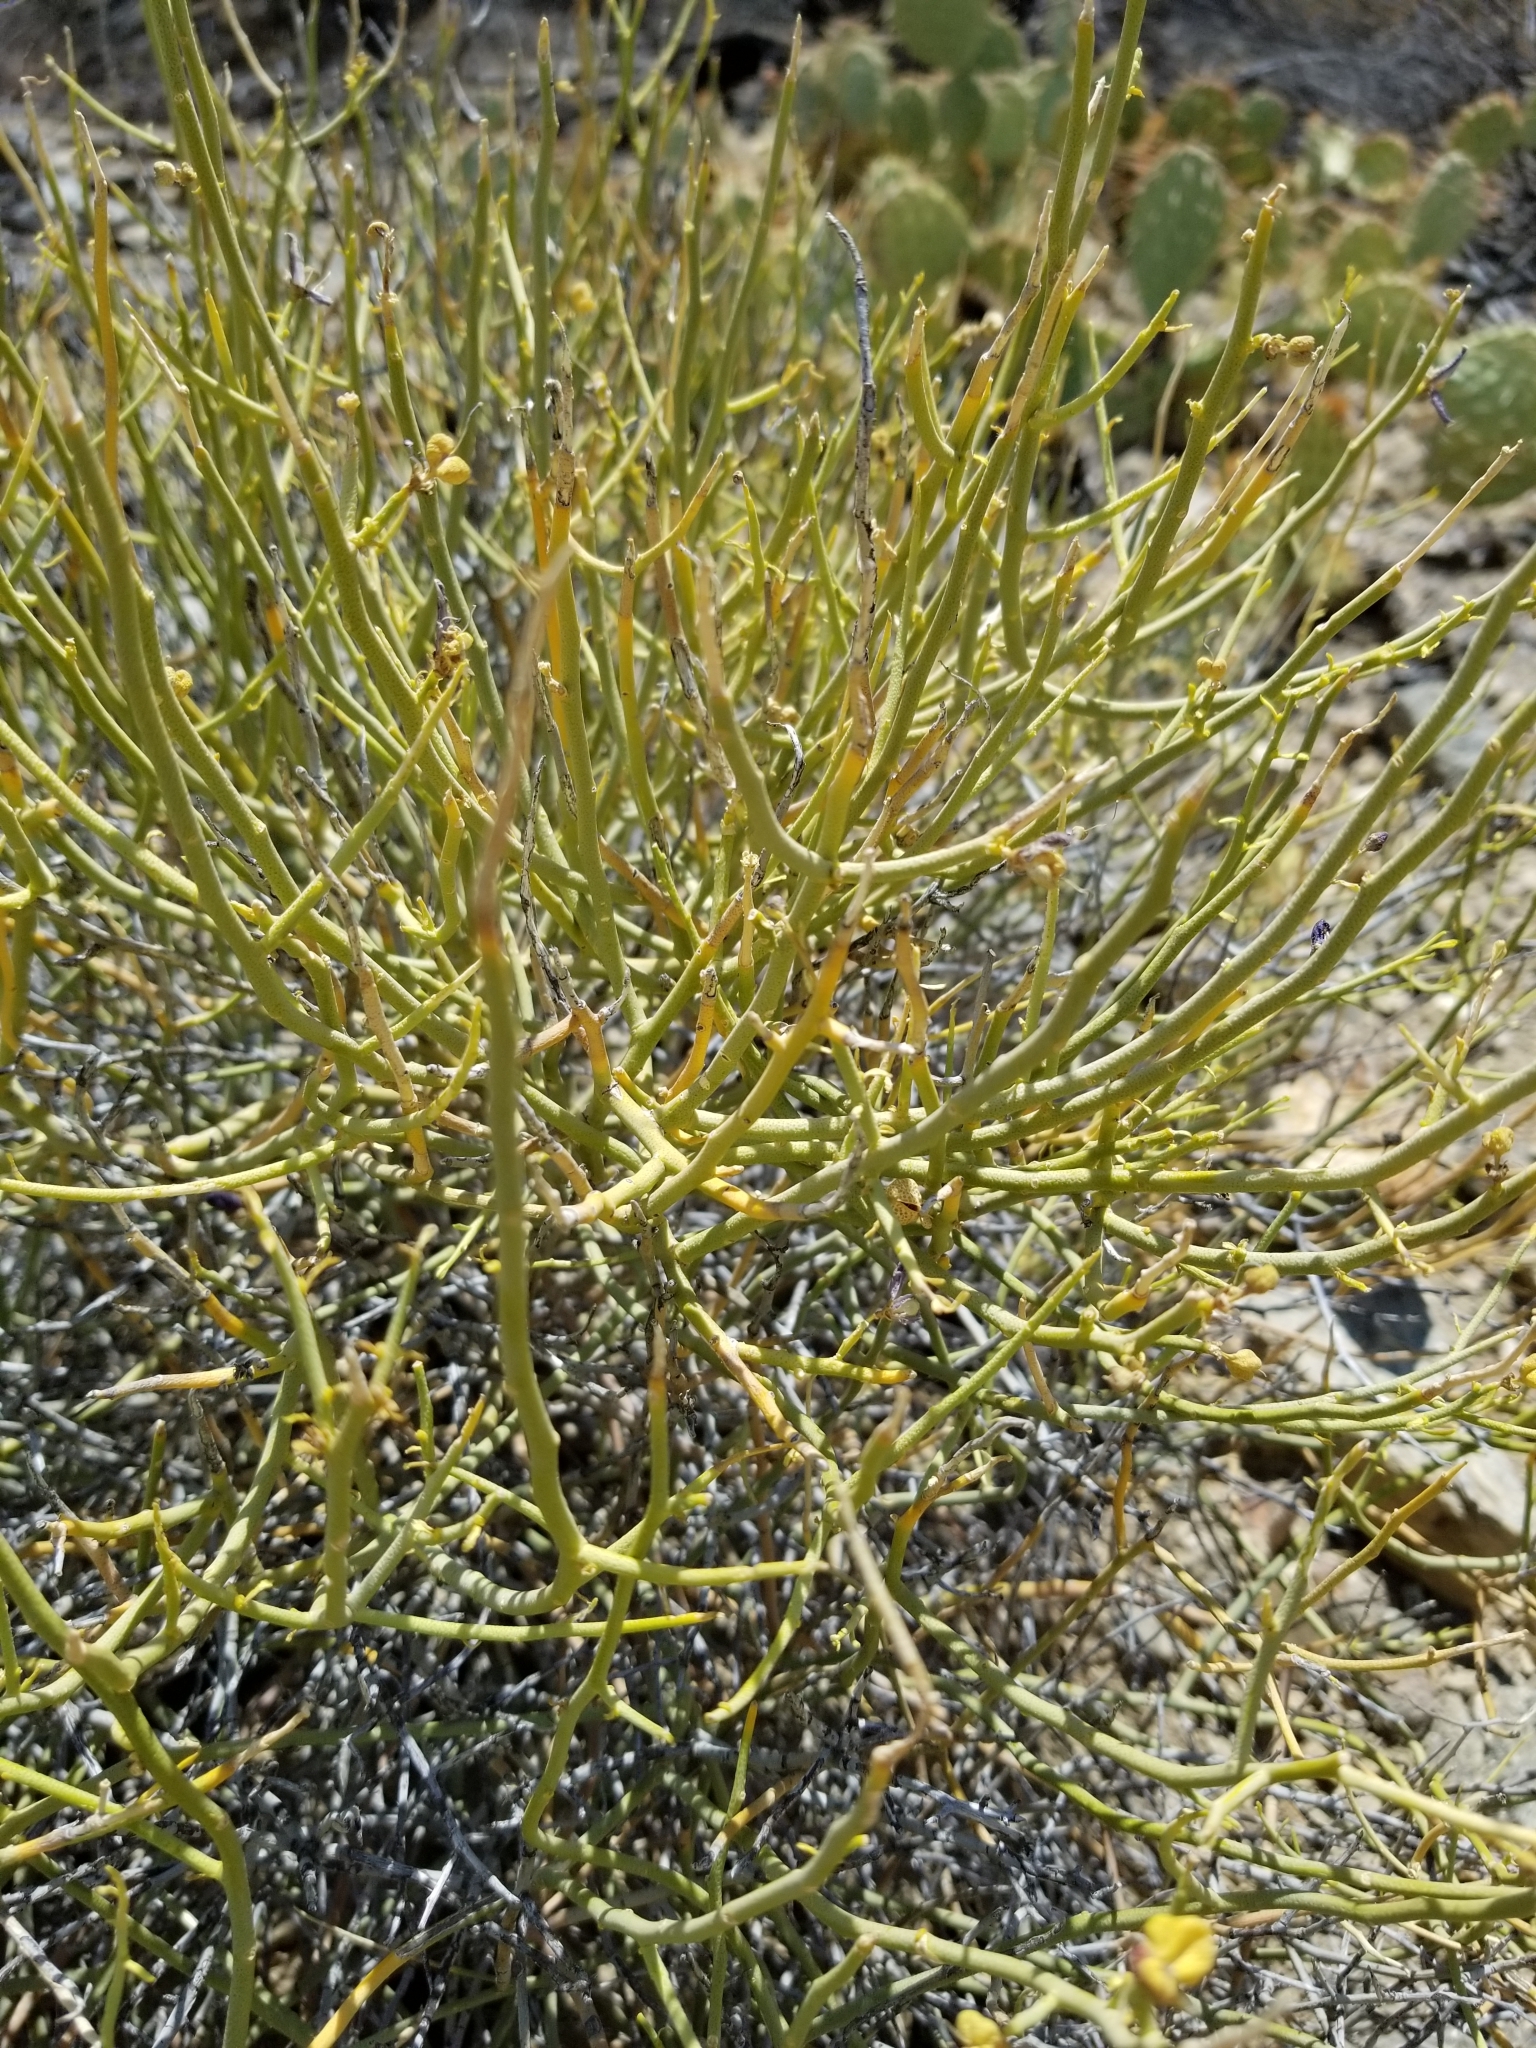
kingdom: Plantae
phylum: Tracheophyta
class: Magnoliopsida
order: Sapindales
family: Rutaceae
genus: Thamnosma
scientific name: Thamnosma montana
